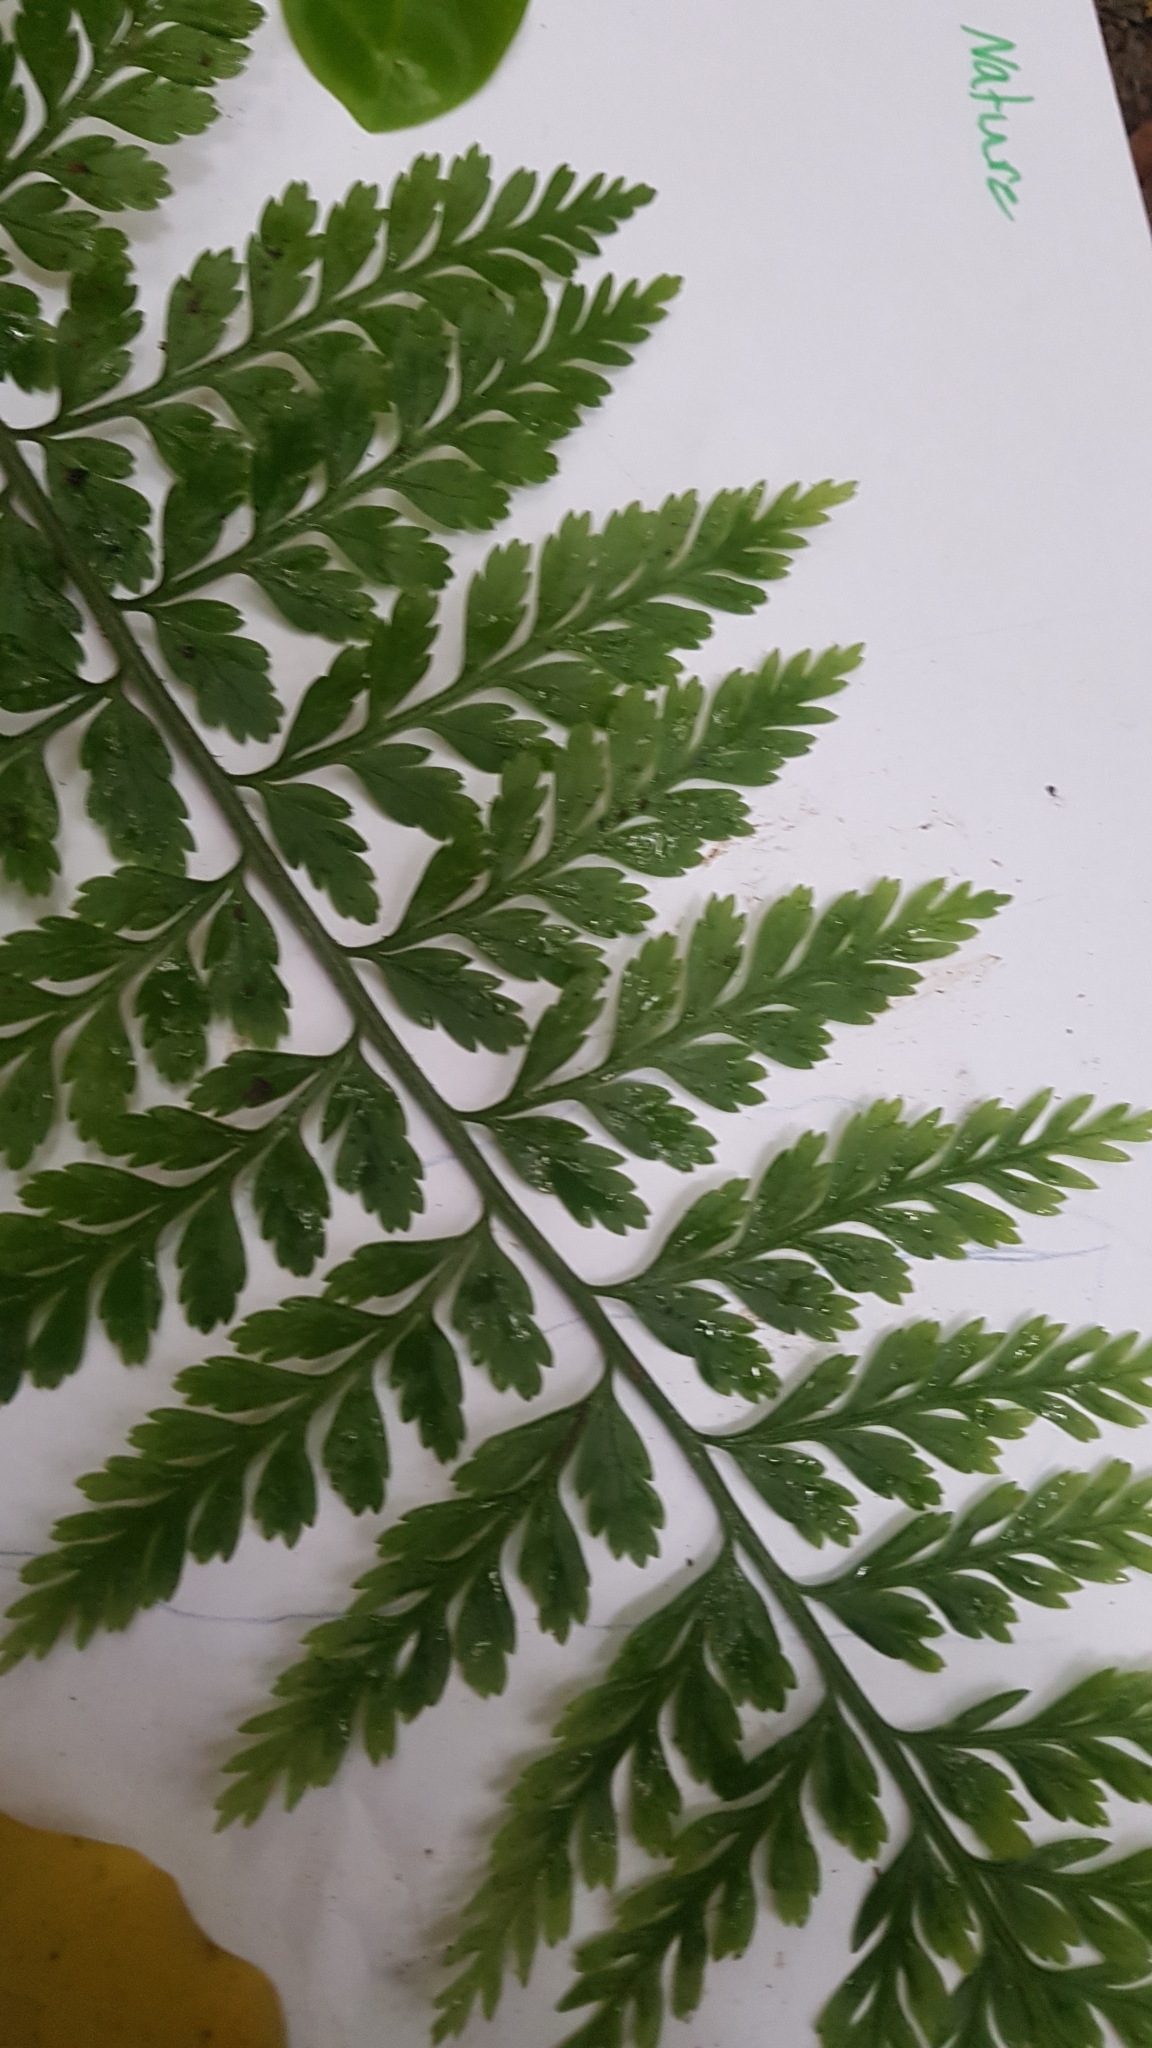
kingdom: Plantae
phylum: Tracheophyta
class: Polypodiopsida
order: Polypodiales
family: Aspleniaceae
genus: Asplenium
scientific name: Asplenium
